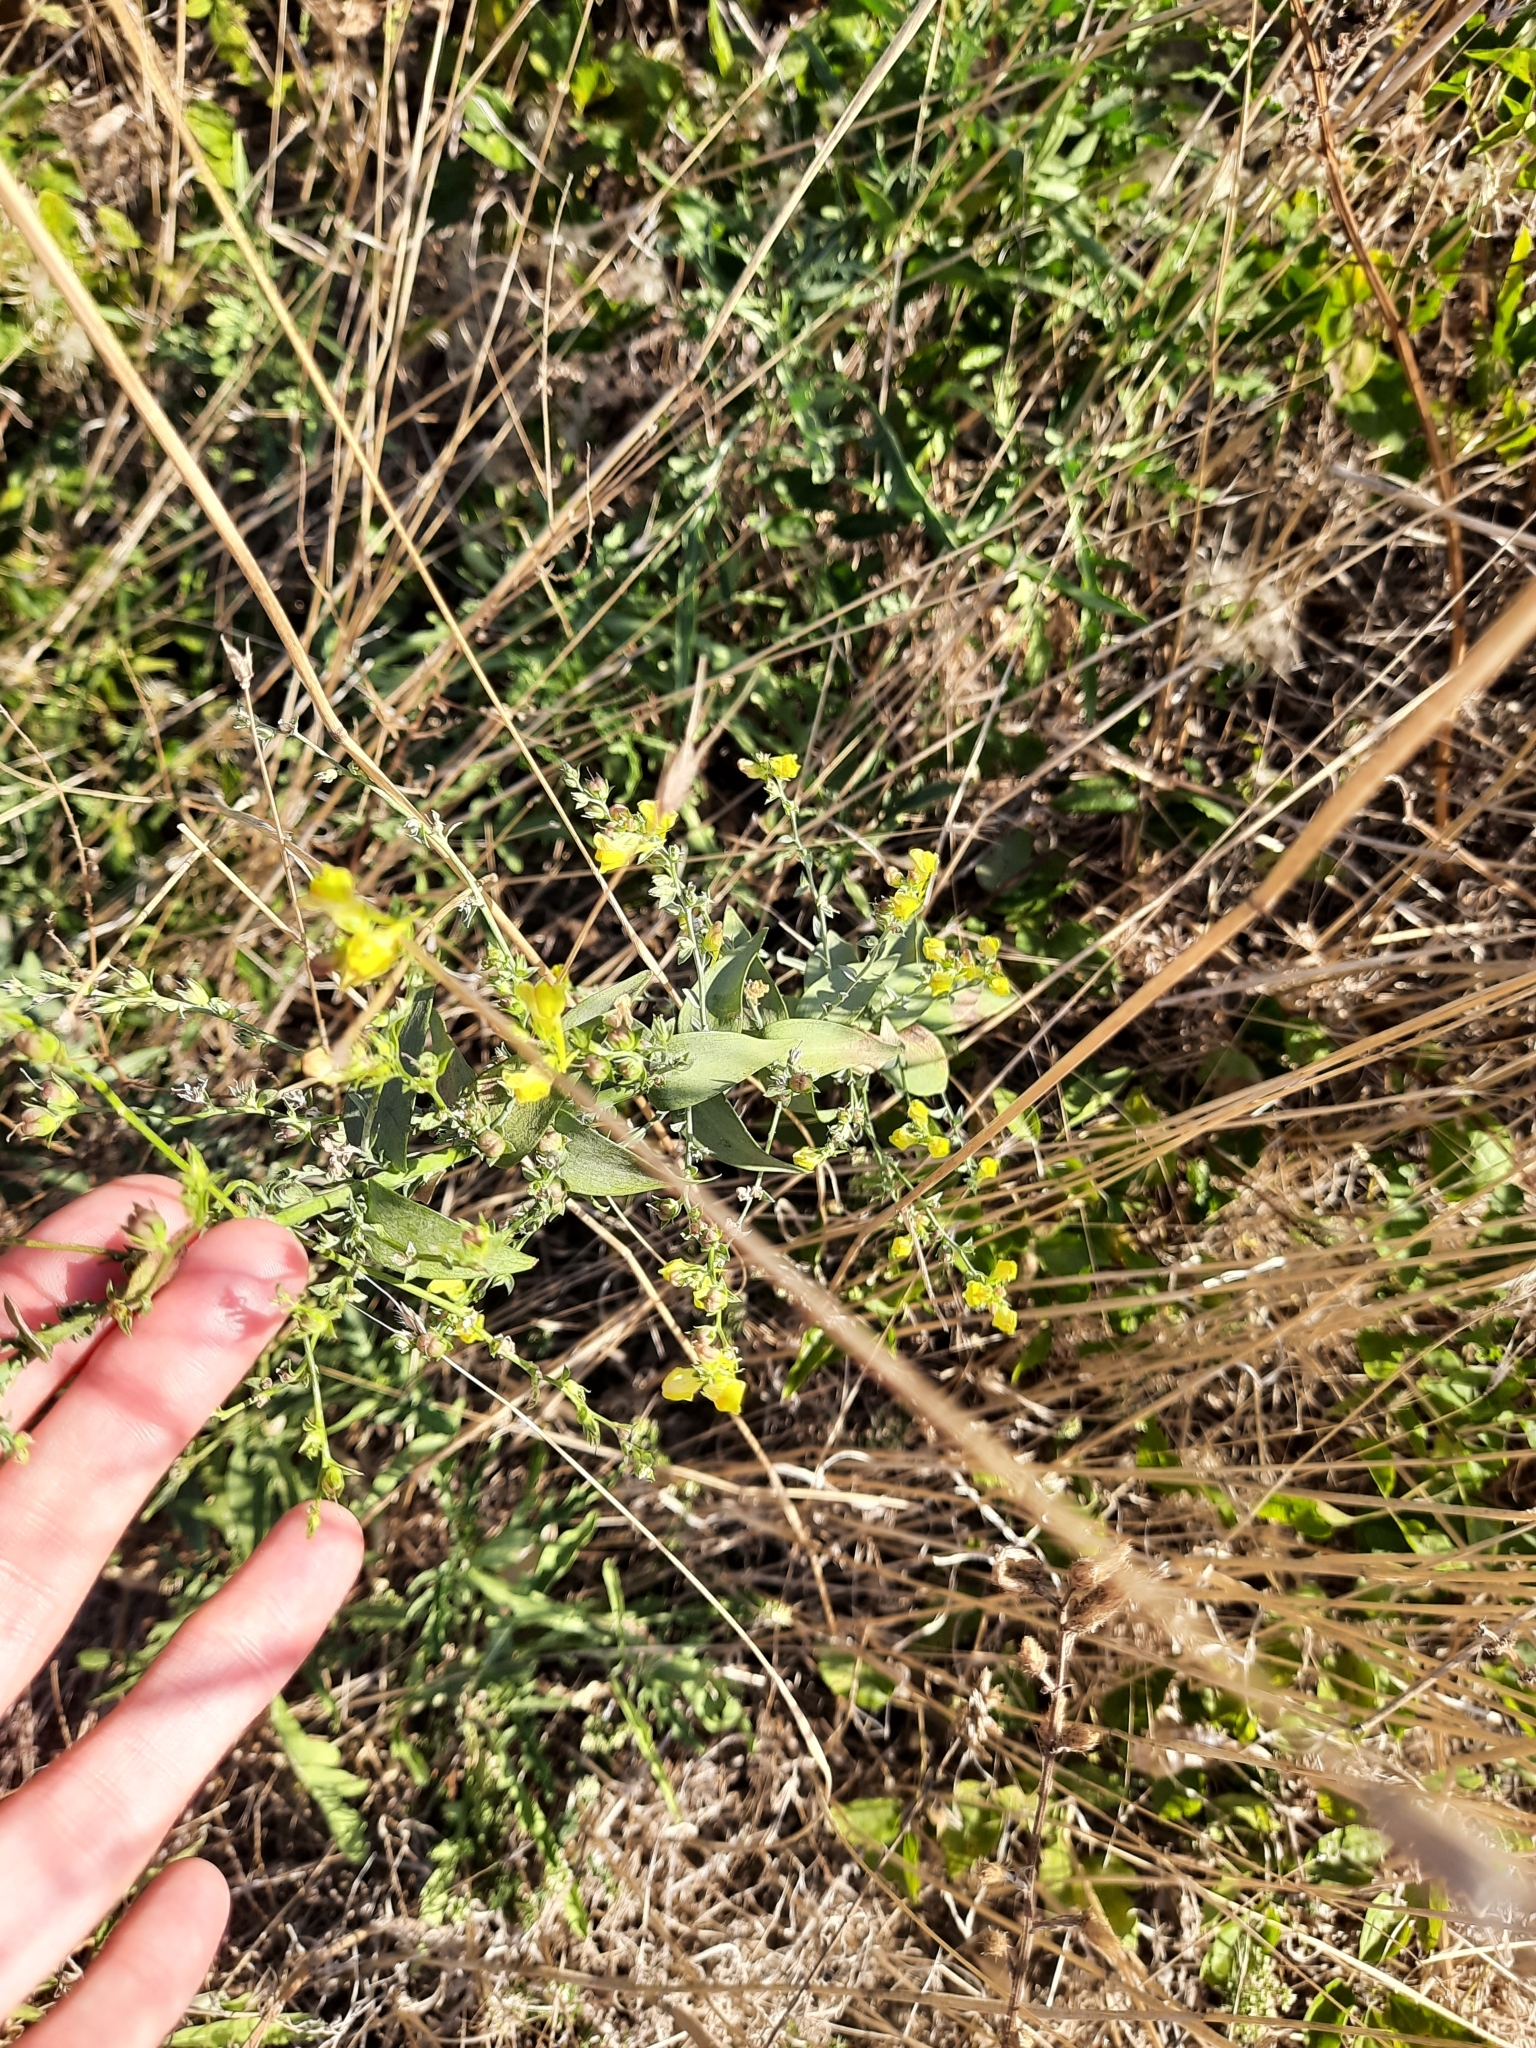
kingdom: Plantae
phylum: Tracheophyta
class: Magnoliopsida
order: Lamiales
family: Plantaginaceae
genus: Linaria
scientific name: Linaria genistifolia
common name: Broomleaf toadflax
